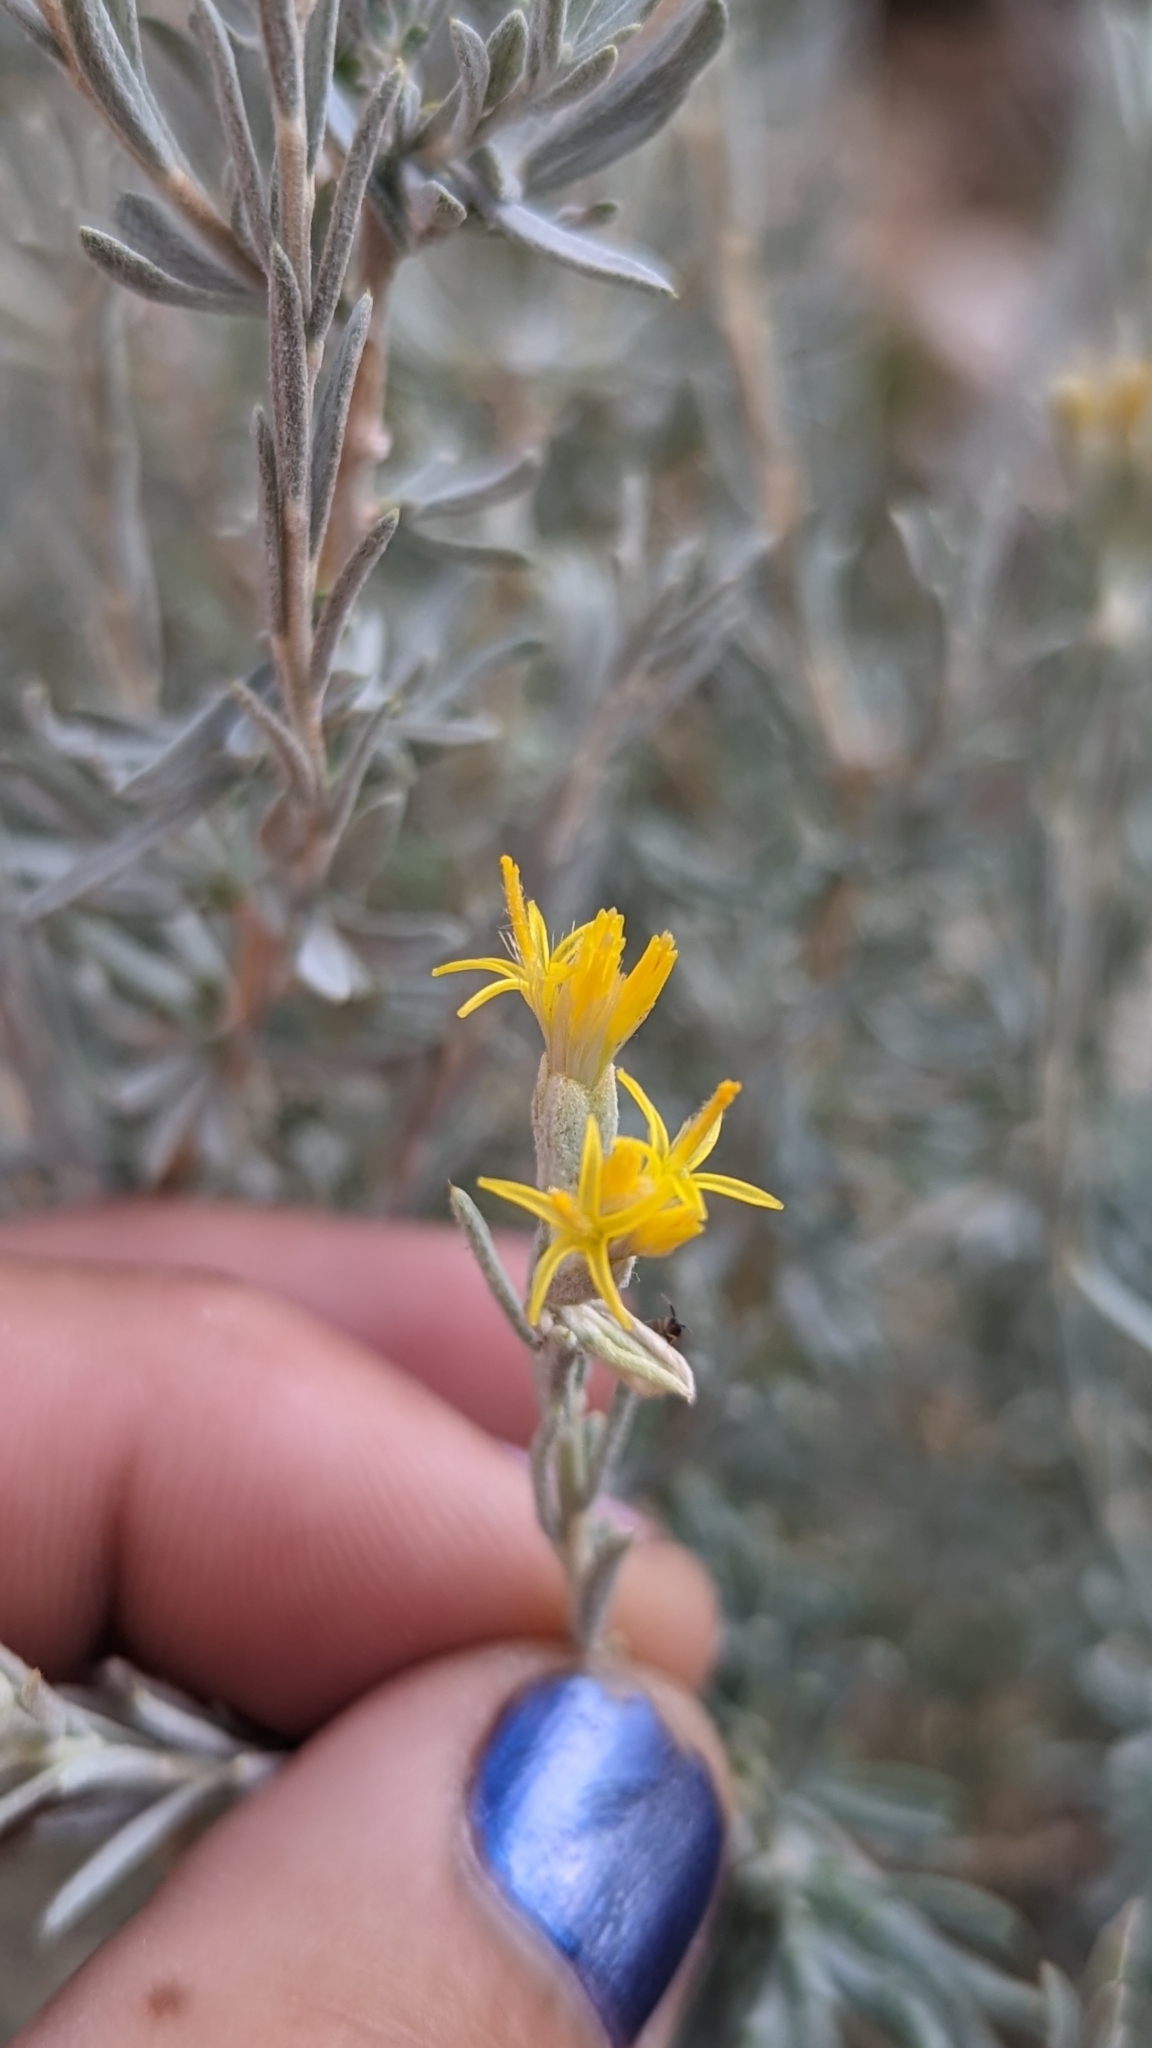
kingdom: Plantae
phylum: Tracheophyta
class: Magnoliopsida
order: Asterales
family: Asteraceae
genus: Tetradymia
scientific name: Tetradymia canescens
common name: Spineless horsebrush
